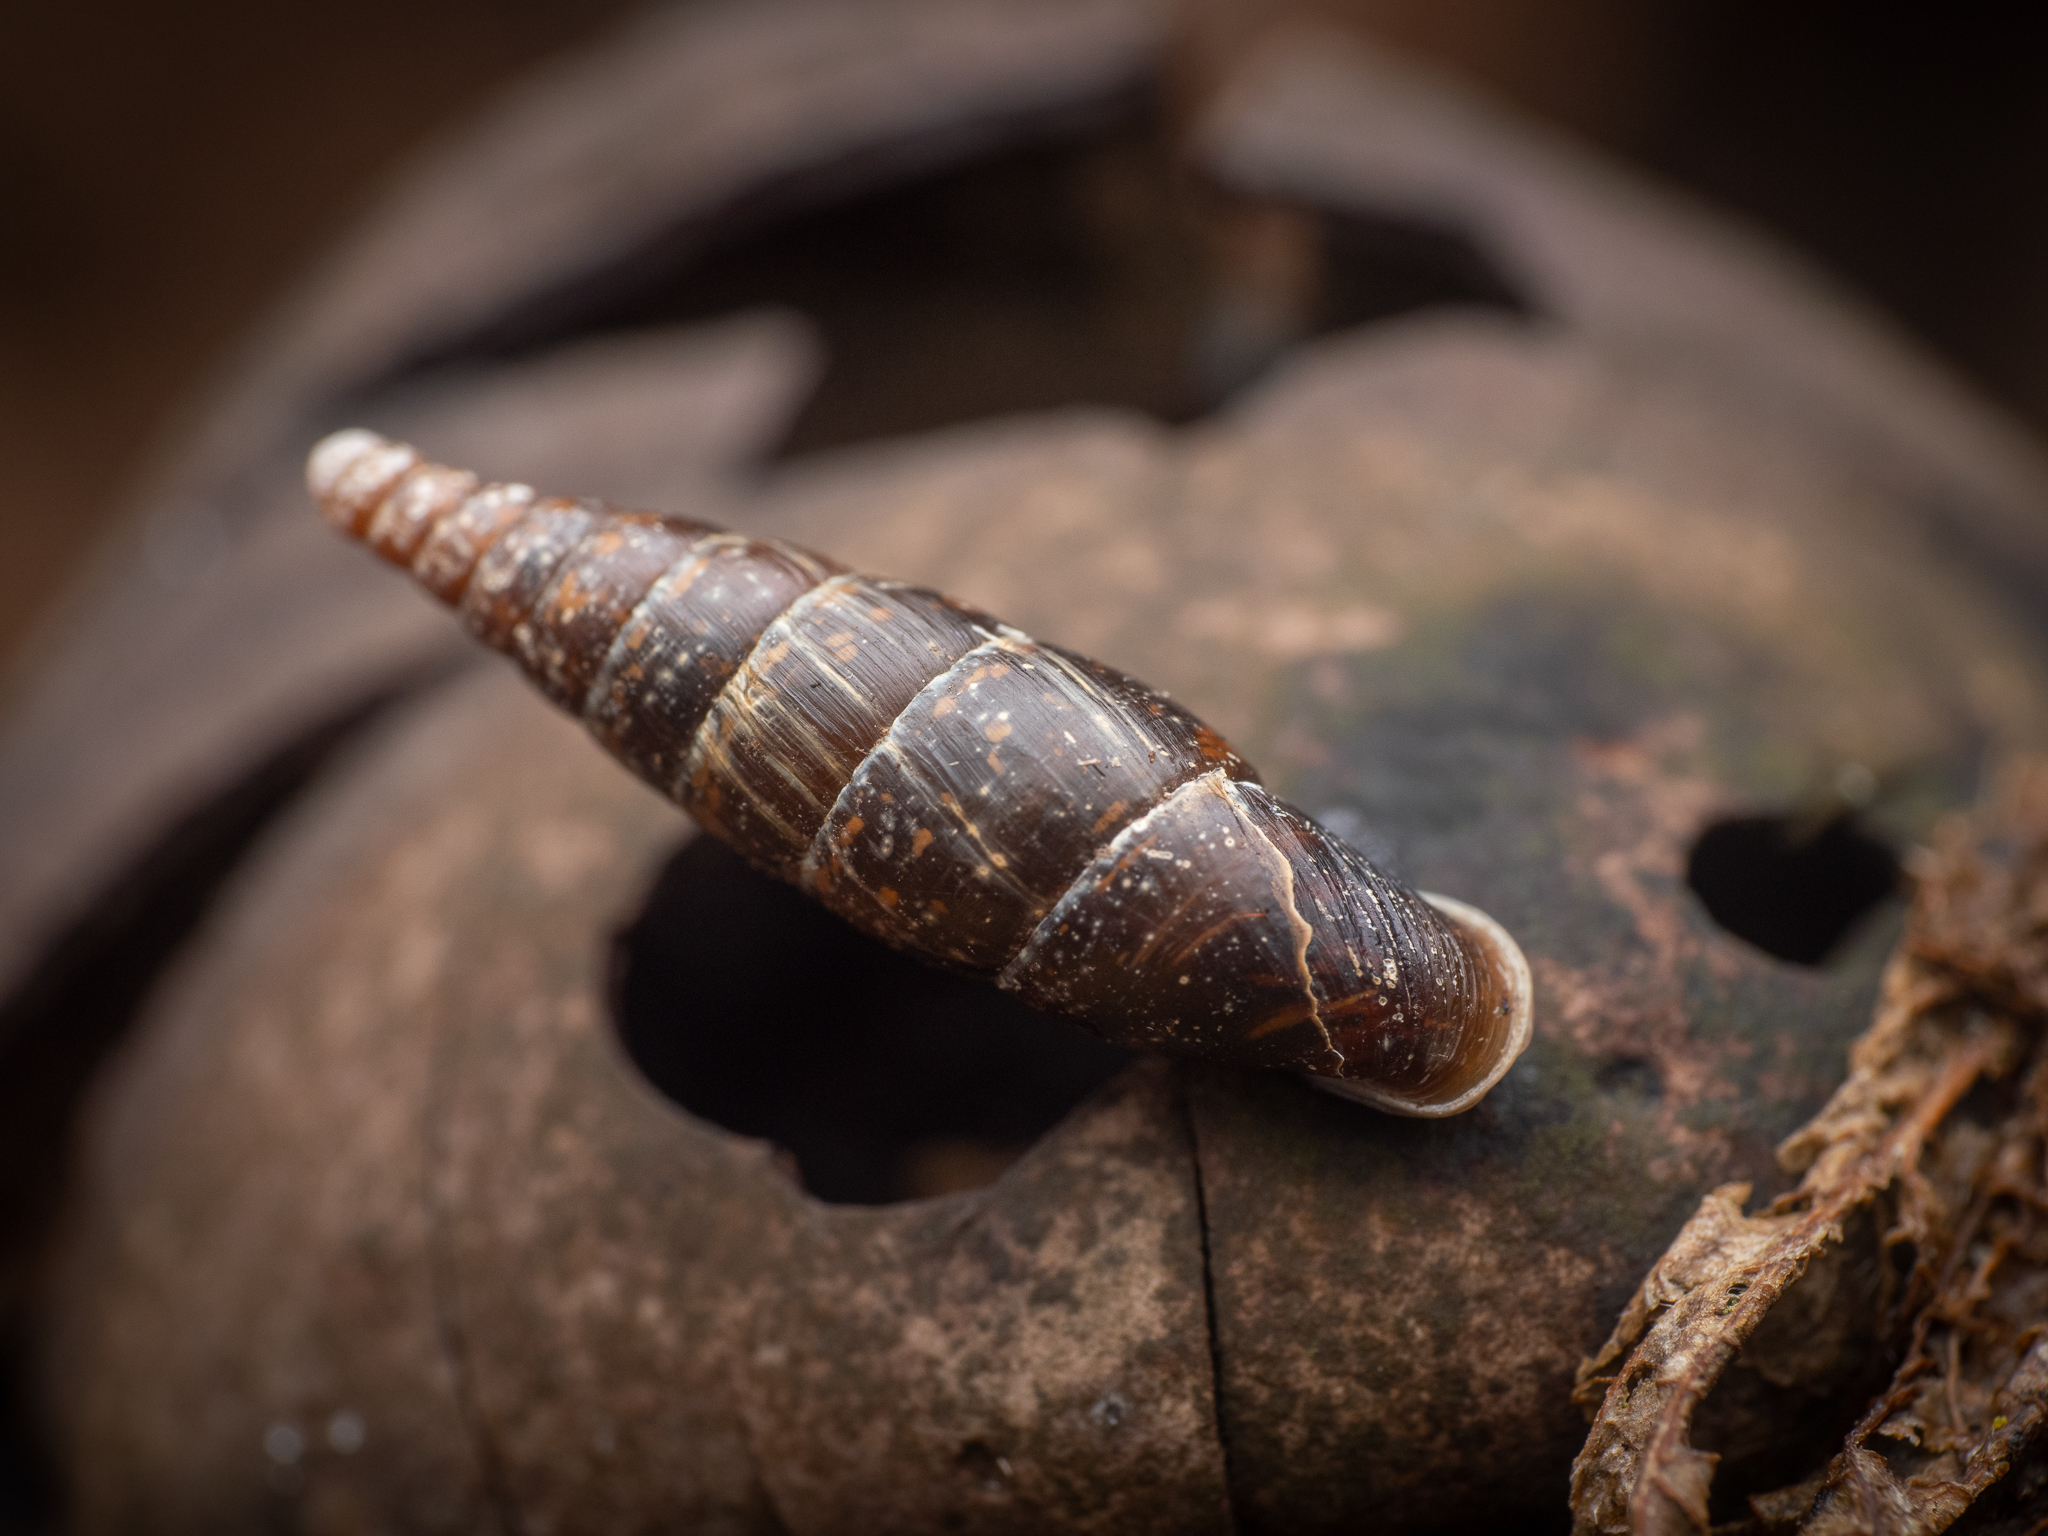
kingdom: Animalia
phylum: Mollusca
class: Gastropoda
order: Stylommatophora
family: Clausiliidae
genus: Cochlodina
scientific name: Cochlodina laminata
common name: Plaited door snail
